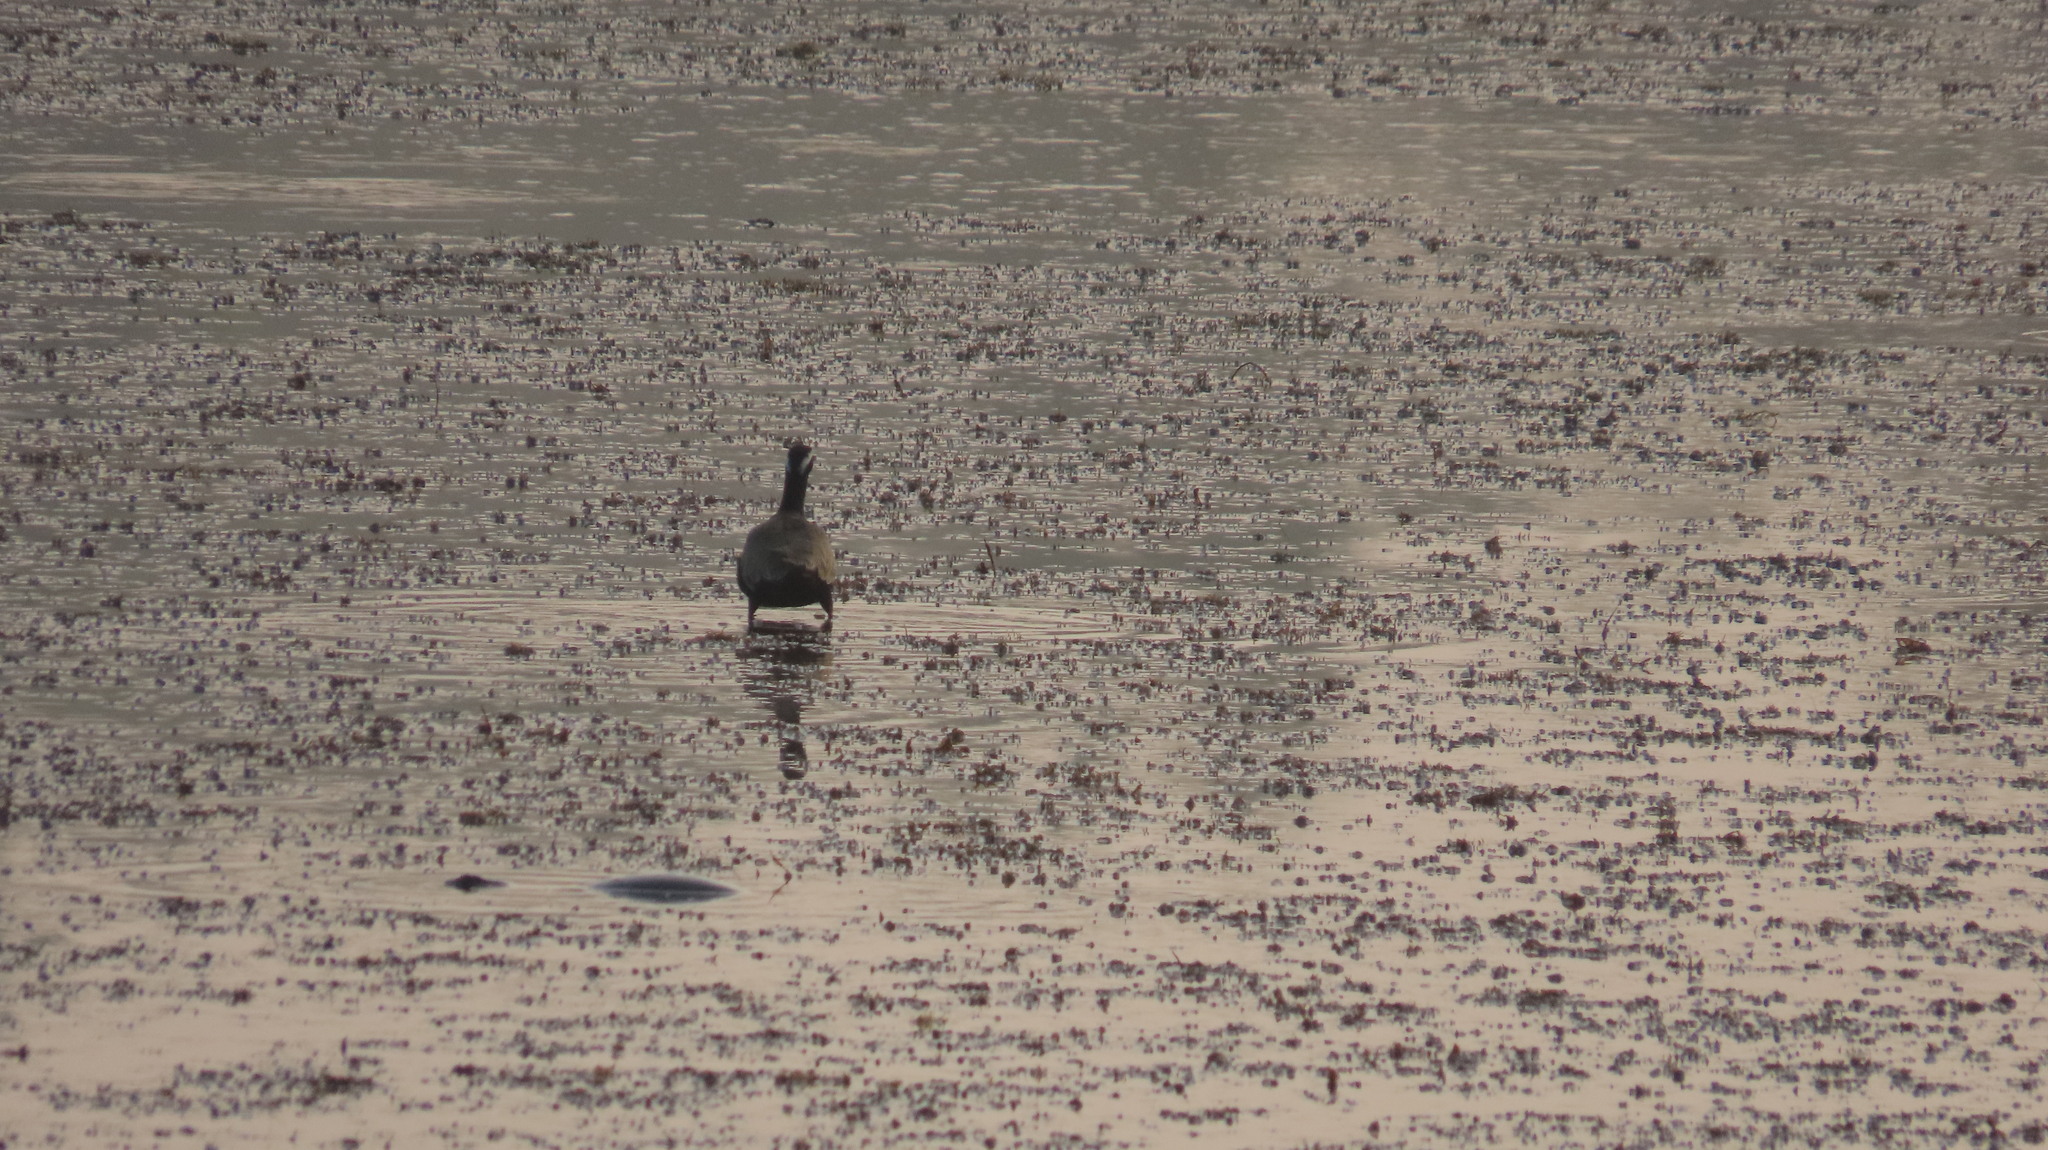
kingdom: Animalia
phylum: Chordata
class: Aves
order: Charadriiformes
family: Jacanidae
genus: Metopidius
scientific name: Metopidius indicus
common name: Bronze-winged jacana
